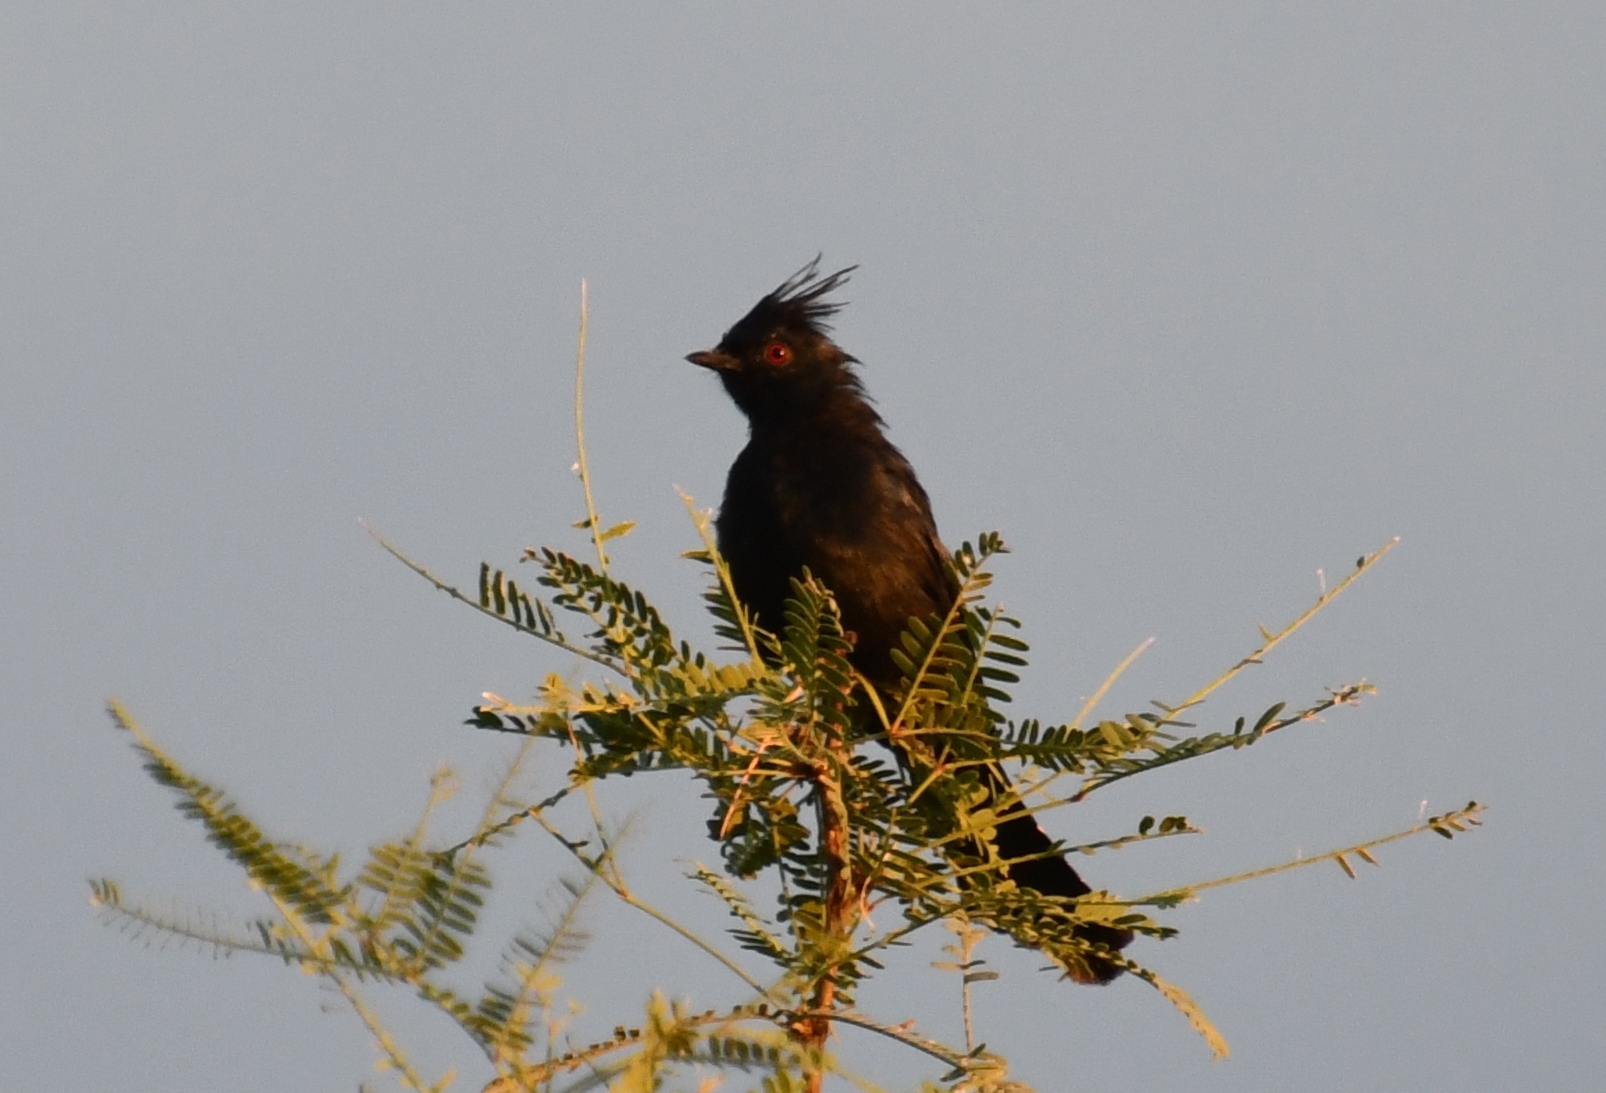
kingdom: Animalia
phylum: Chordata
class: Aves
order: Passeriformes
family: Ptilogonatidae
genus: Phainopepla
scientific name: Phainopepla nitens
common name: Phainopepla
